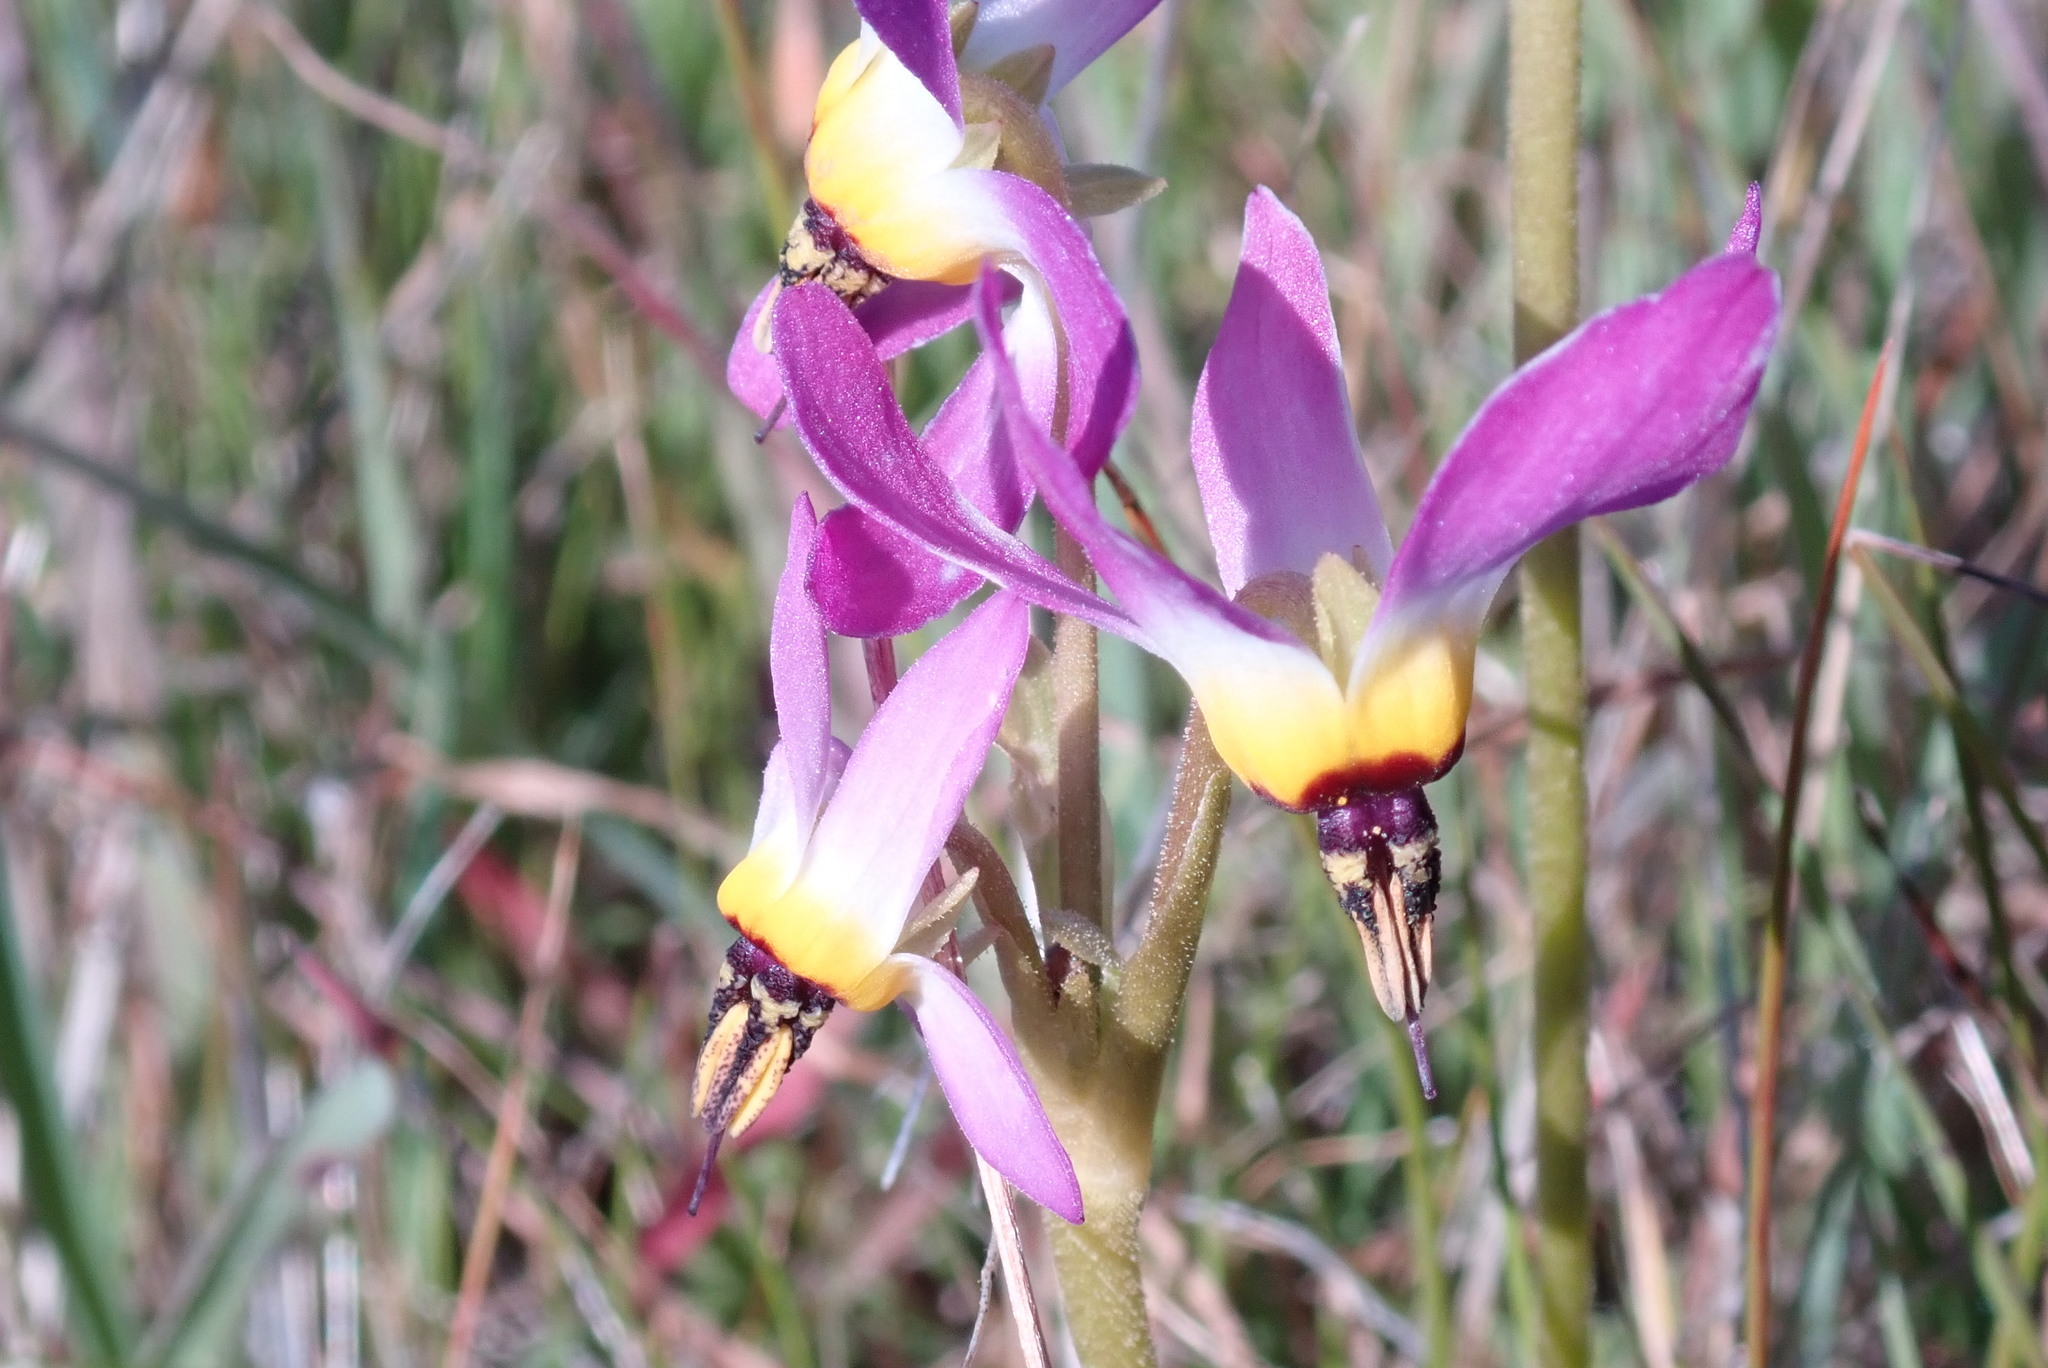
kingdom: Plantae
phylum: Tracheophyta
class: Magnoliopsida
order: Ericales
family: Primulaceae
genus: Dodecatheon
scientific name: Dodecatheon clevelandii
